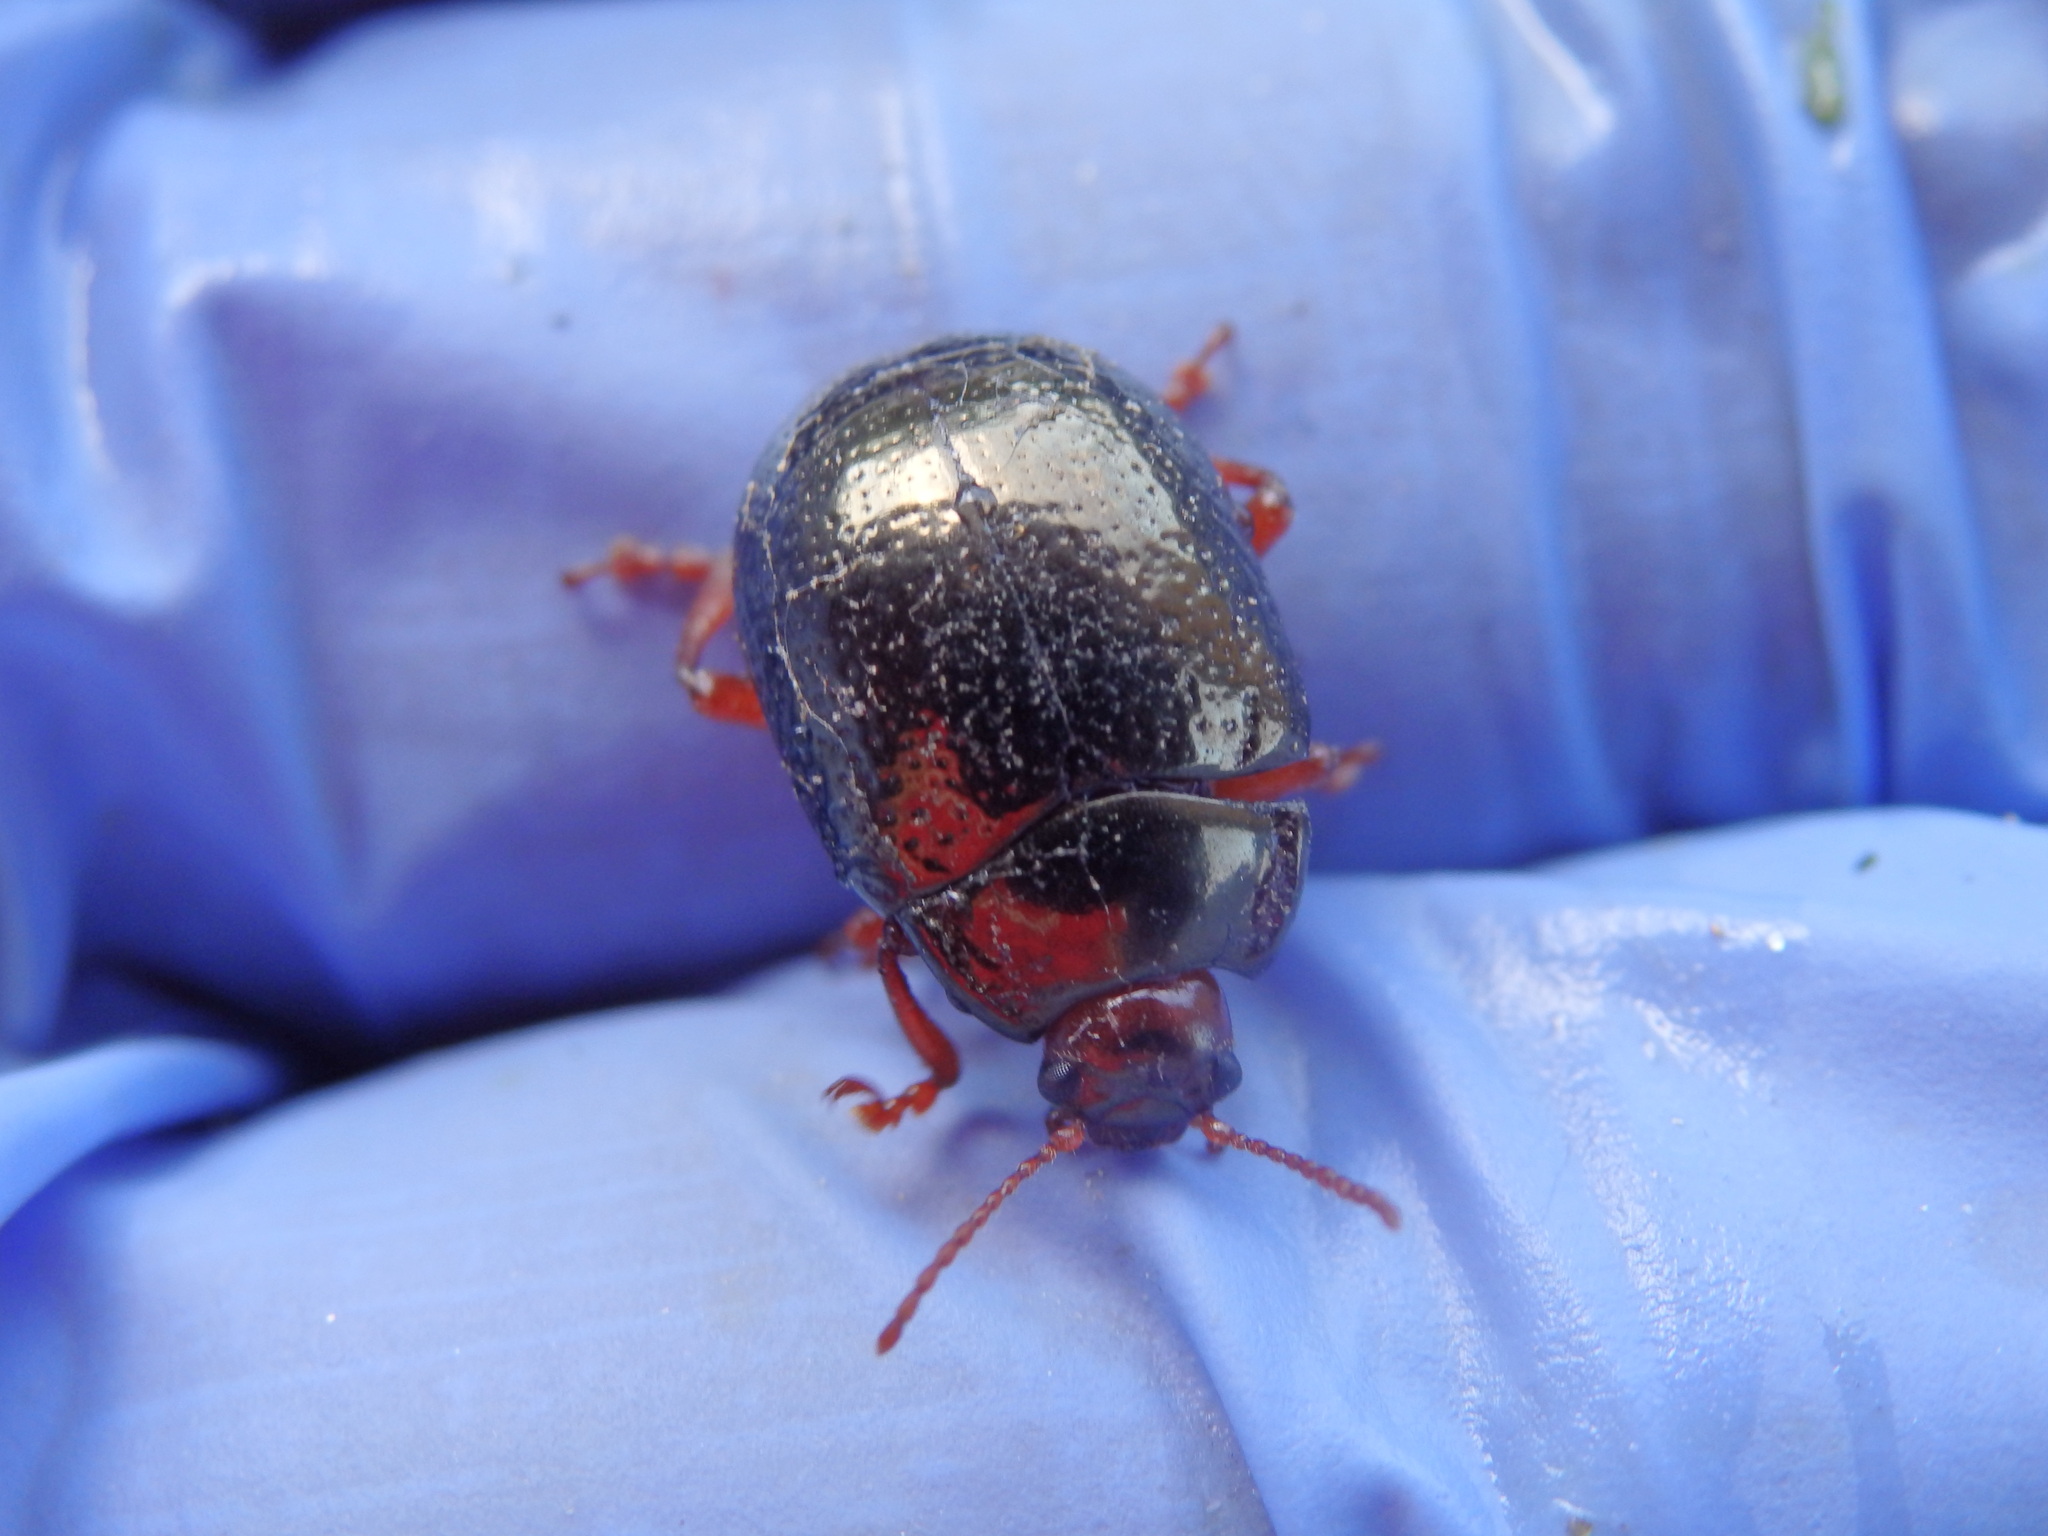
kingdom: Animalia
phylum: Arthropoda
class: Insecta
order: Coleoptera
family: Chrysomelidae
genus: Chrysolina
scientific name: Chrysolina bankii
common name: Leaf beetle
